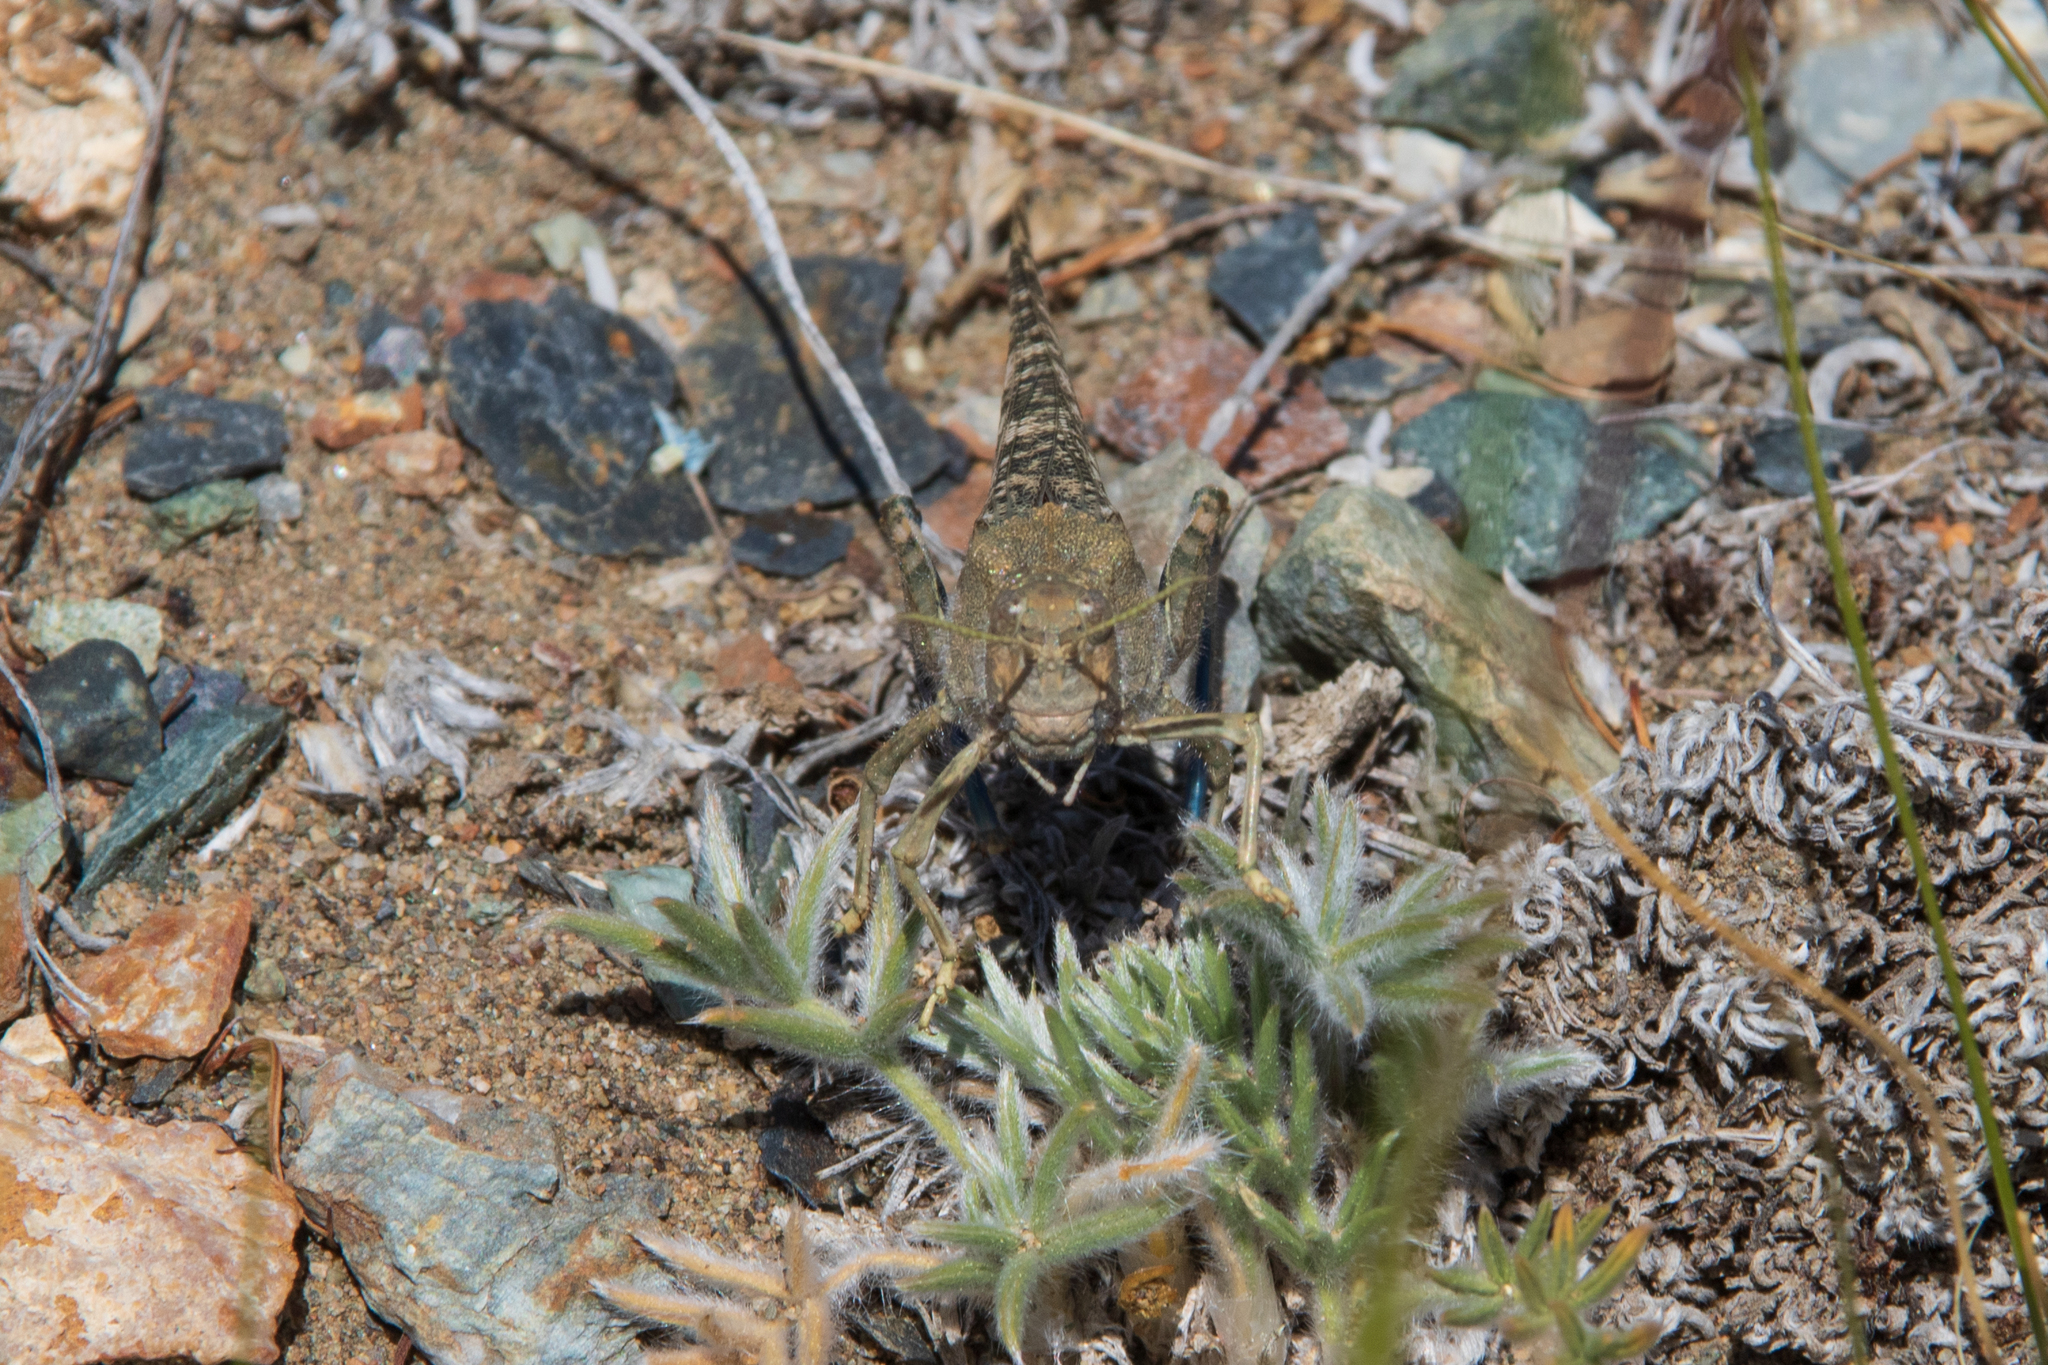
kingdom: Animalia
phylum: Arthropoda
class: Insecta
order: Orthoptera
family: Acrididae
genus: Bryodema
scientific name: Bryodema gebleri
